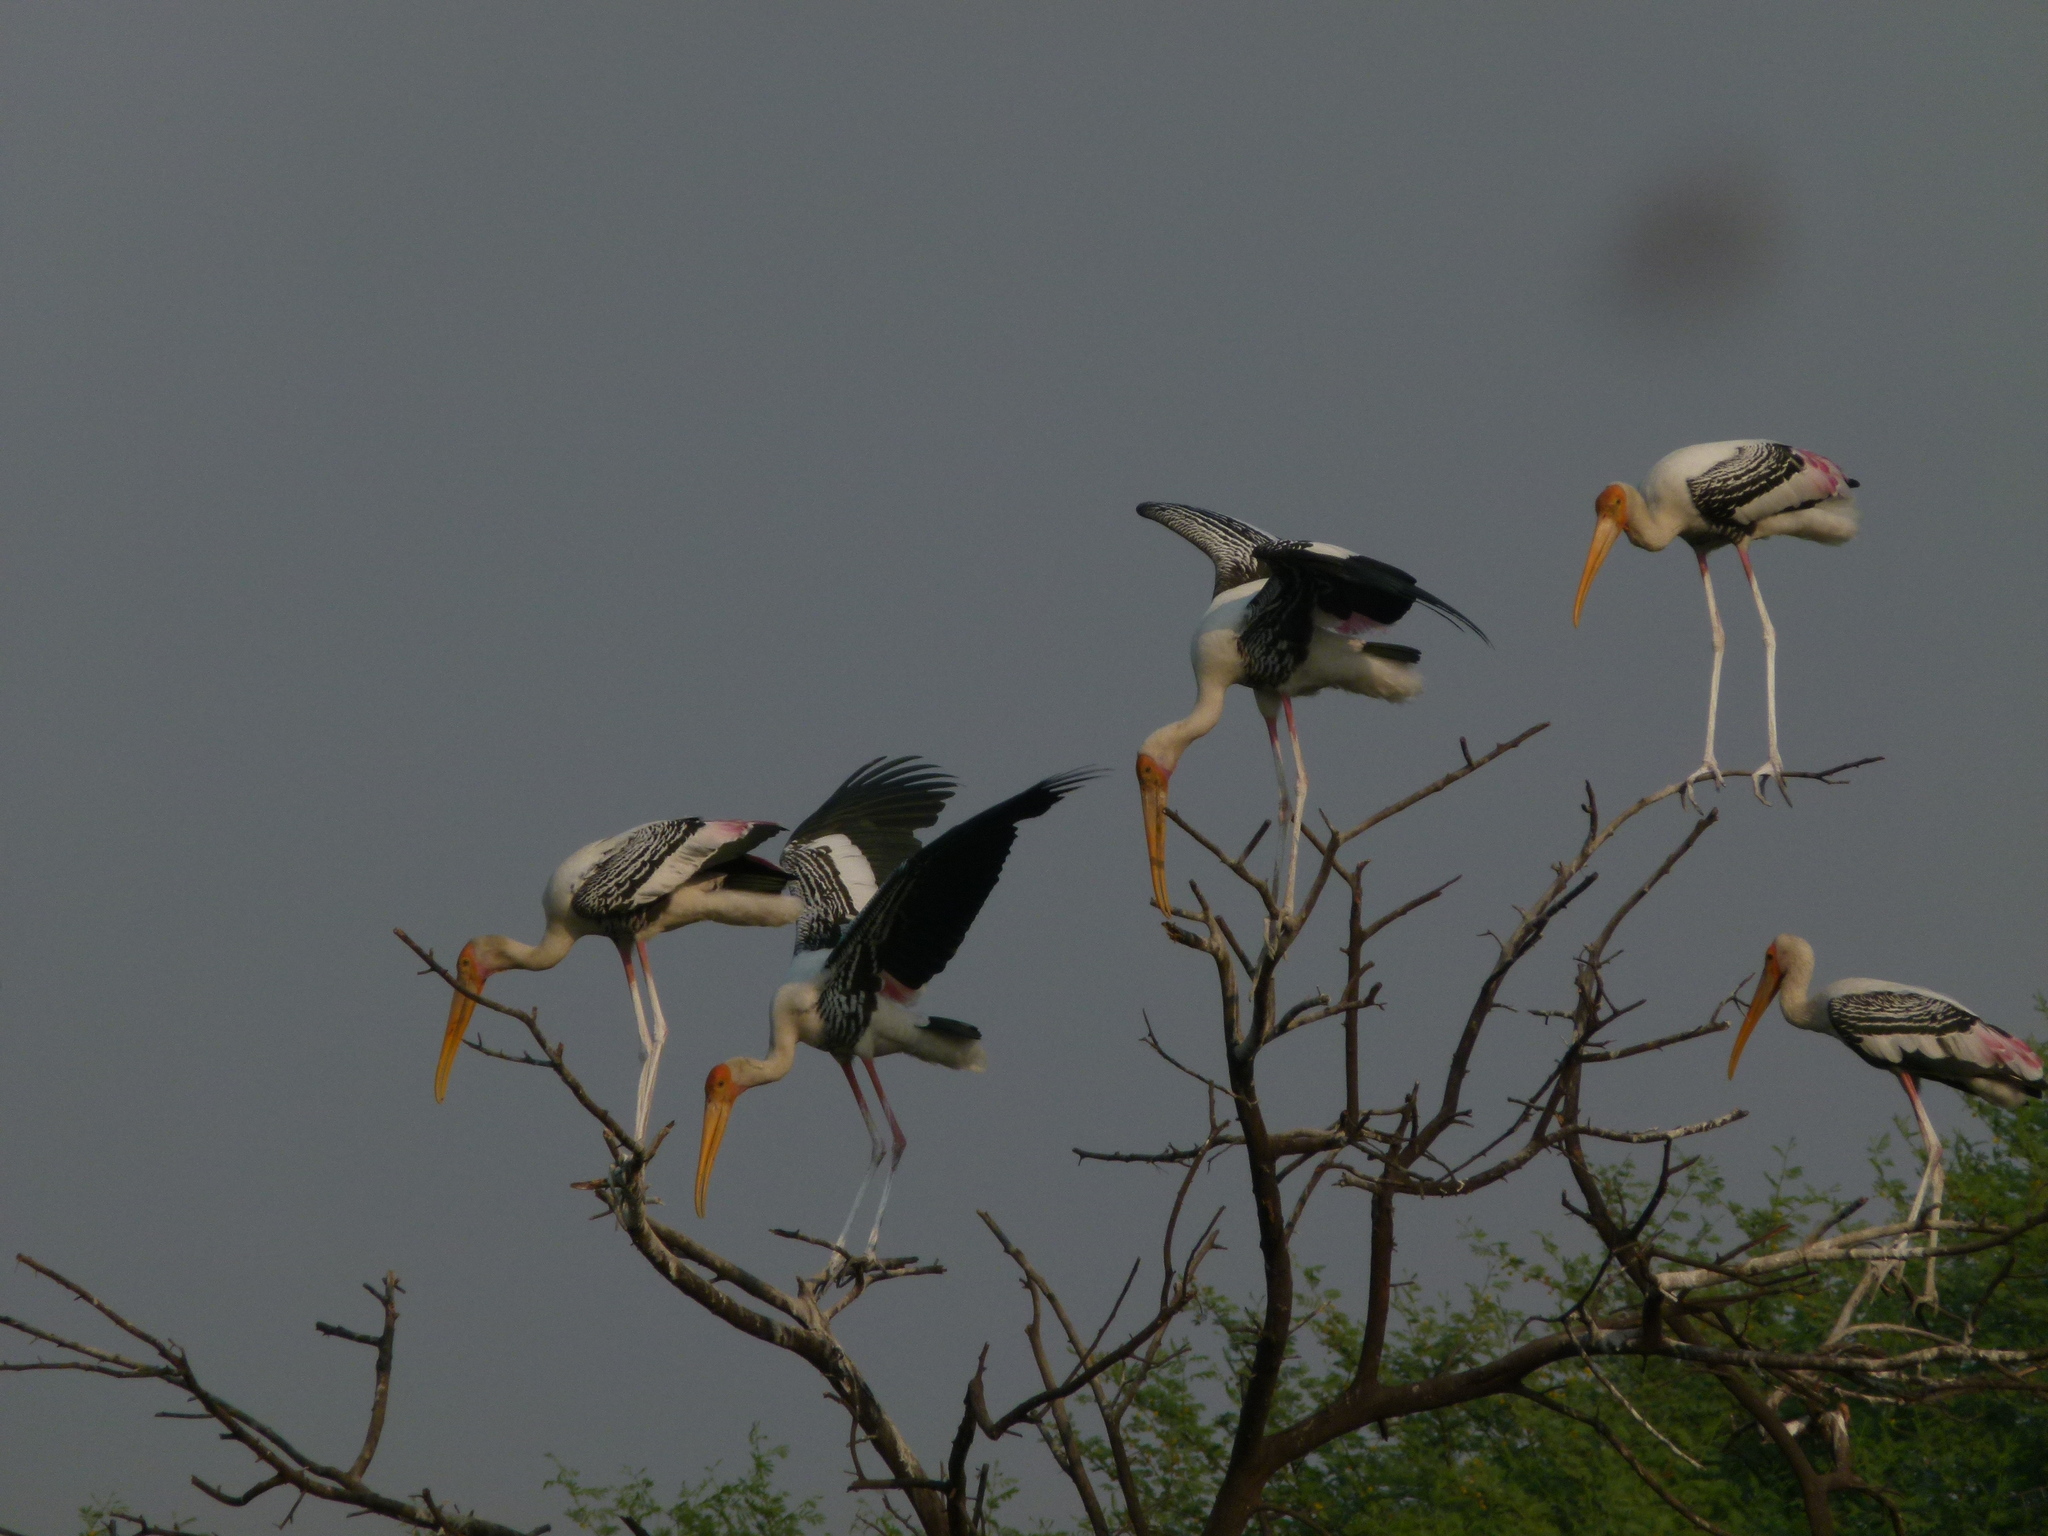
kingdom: Animalia
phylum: Chordata
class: Aves
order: Ciconiiformes
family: Ciconiidae
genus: Mycteria
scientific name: Mycteria leucocephala
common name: Painted stork
